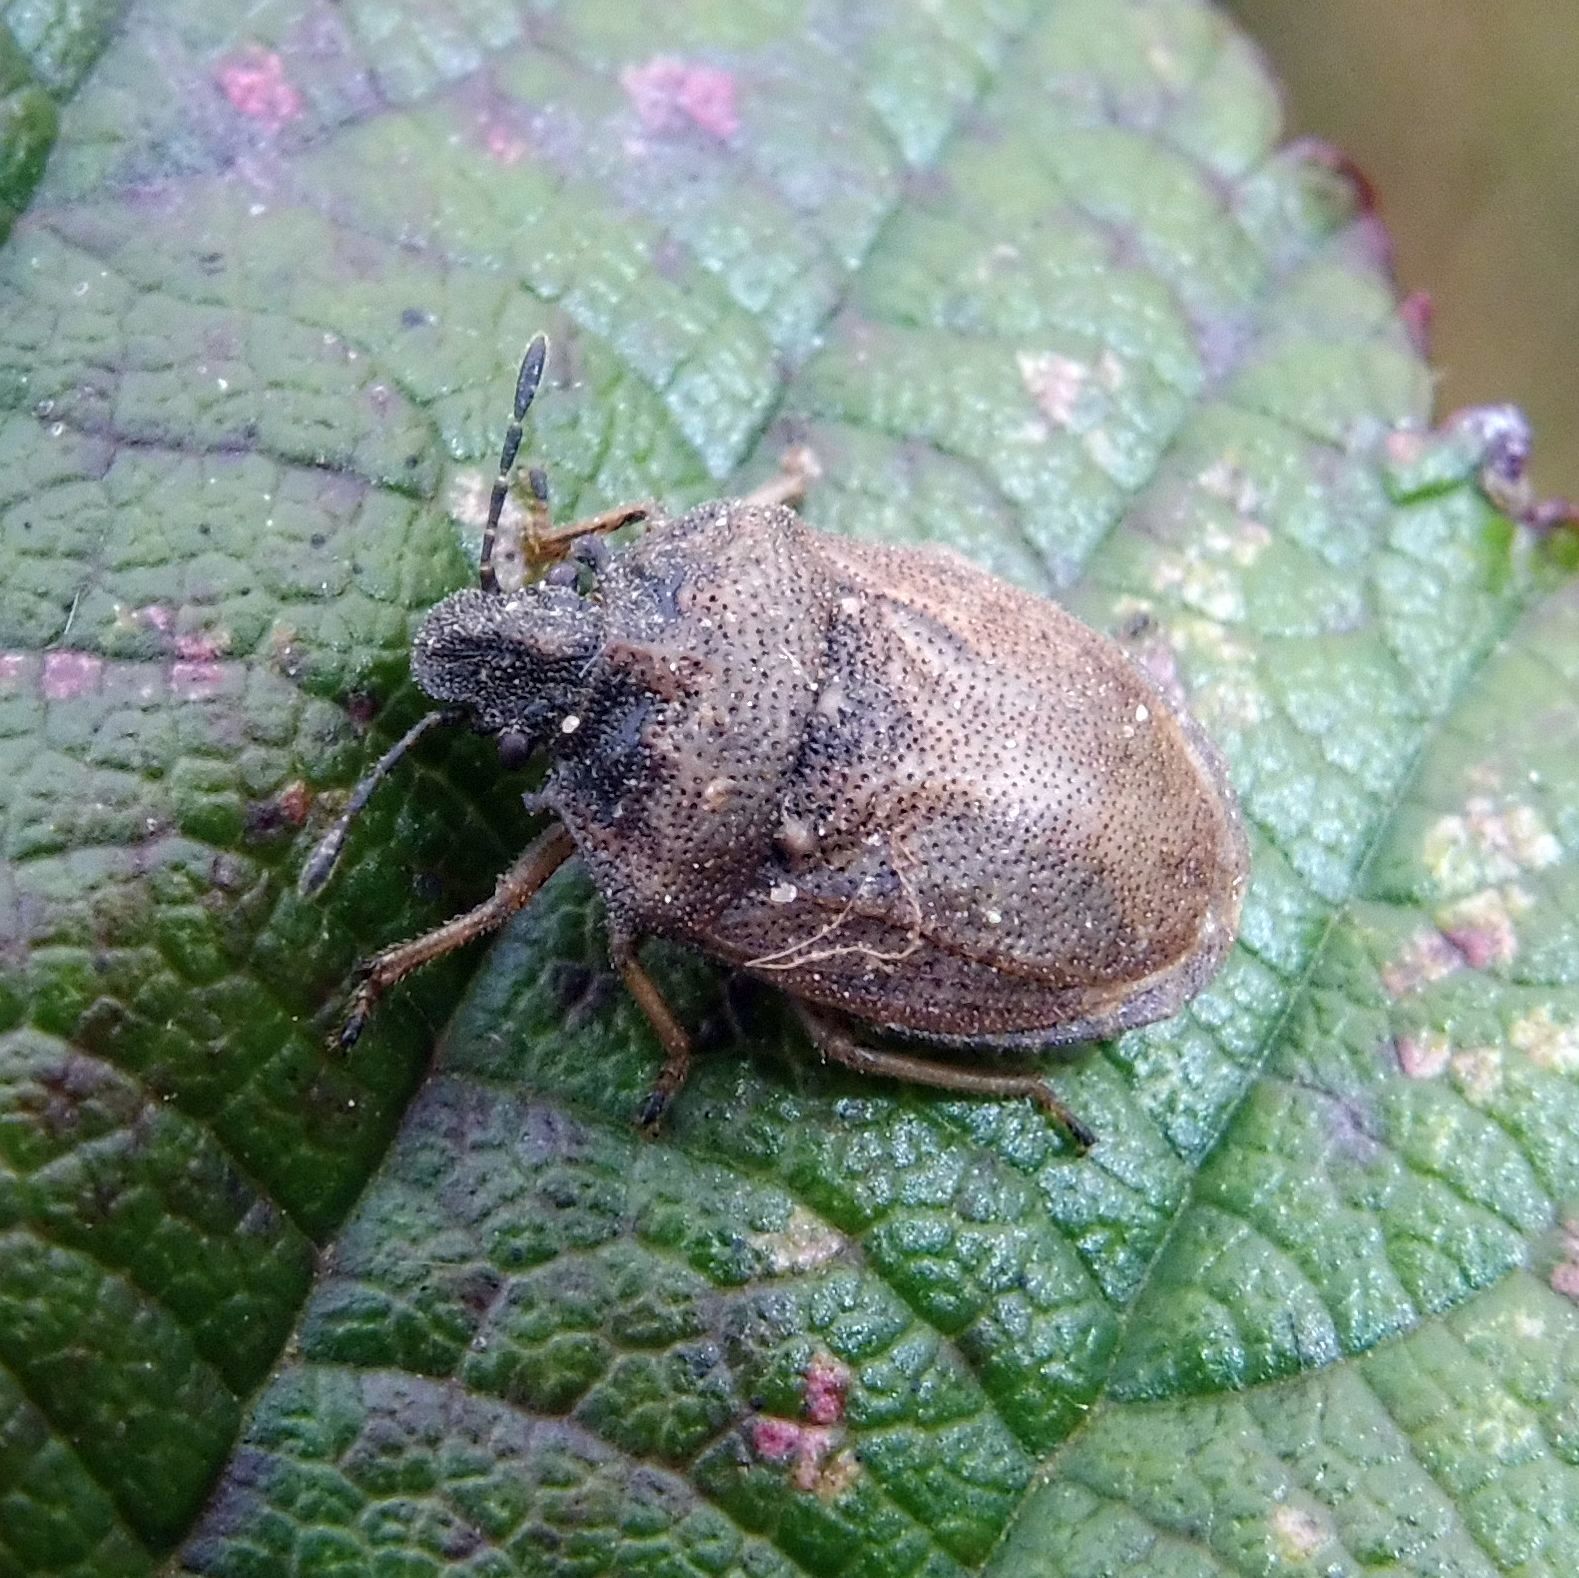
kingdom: Animalia
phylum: Arthropoda
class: Insecta
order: Hemiptera
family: Pentatomidae
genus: Podops
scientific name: Podops inunctus
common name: Turtle bug
